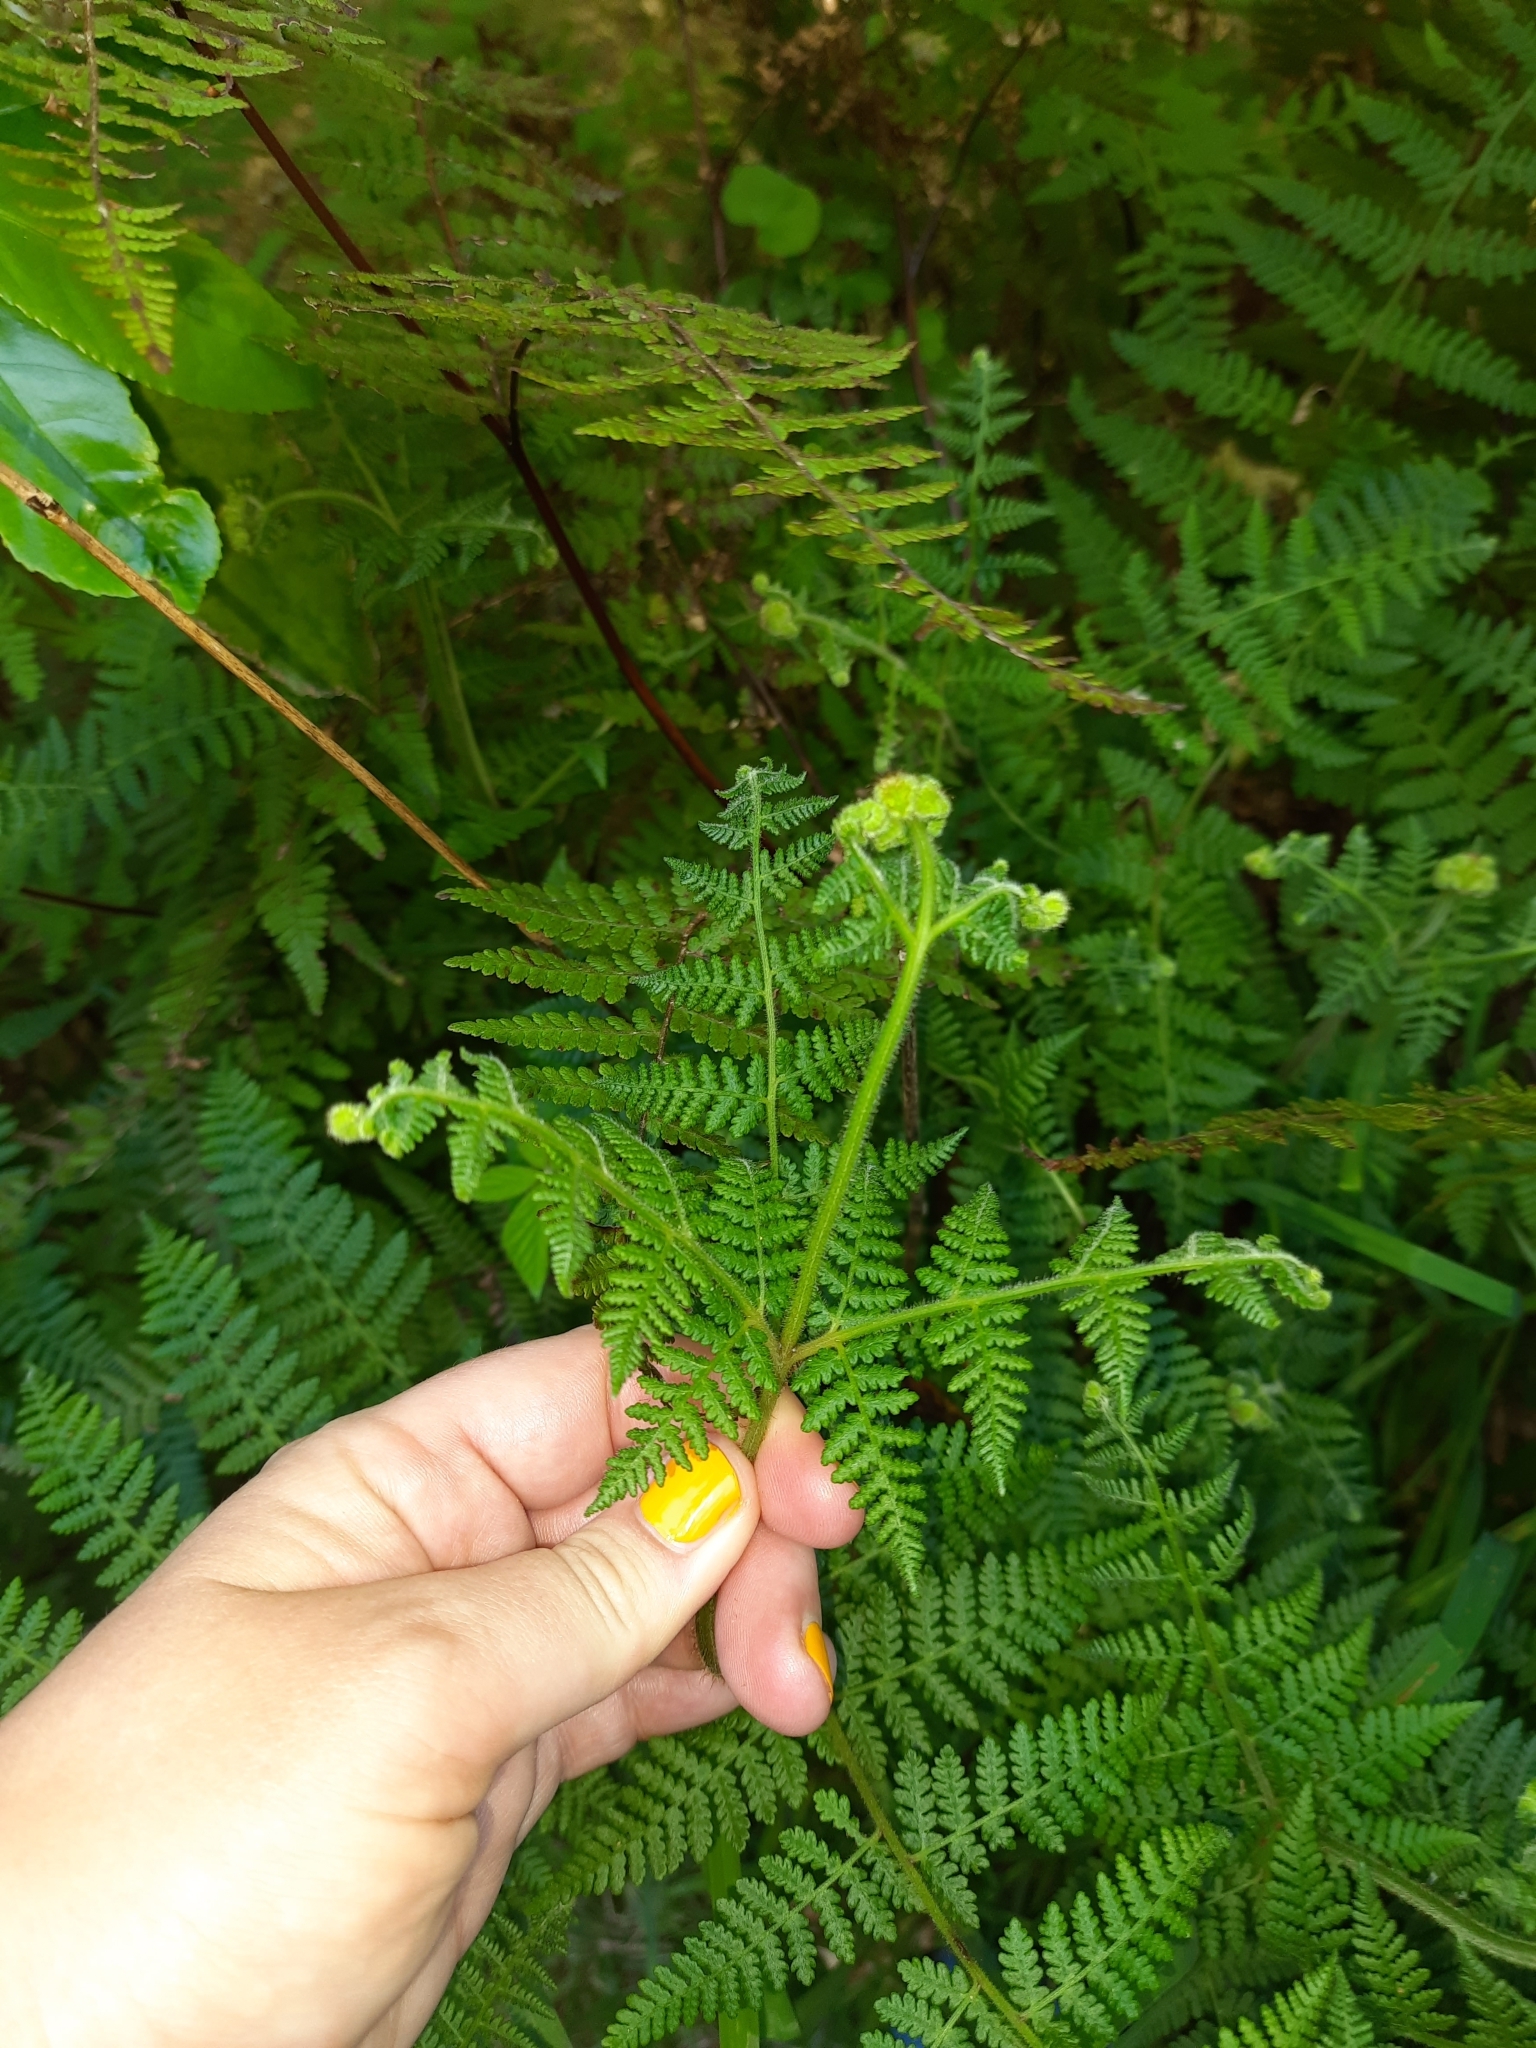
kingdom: Plantae
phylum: Tracheophyta
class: Polypodiopsida
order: Polypodiales
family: Dennstaedtiaceae
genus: Hypolepis
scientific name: Hypolepis ambigua
